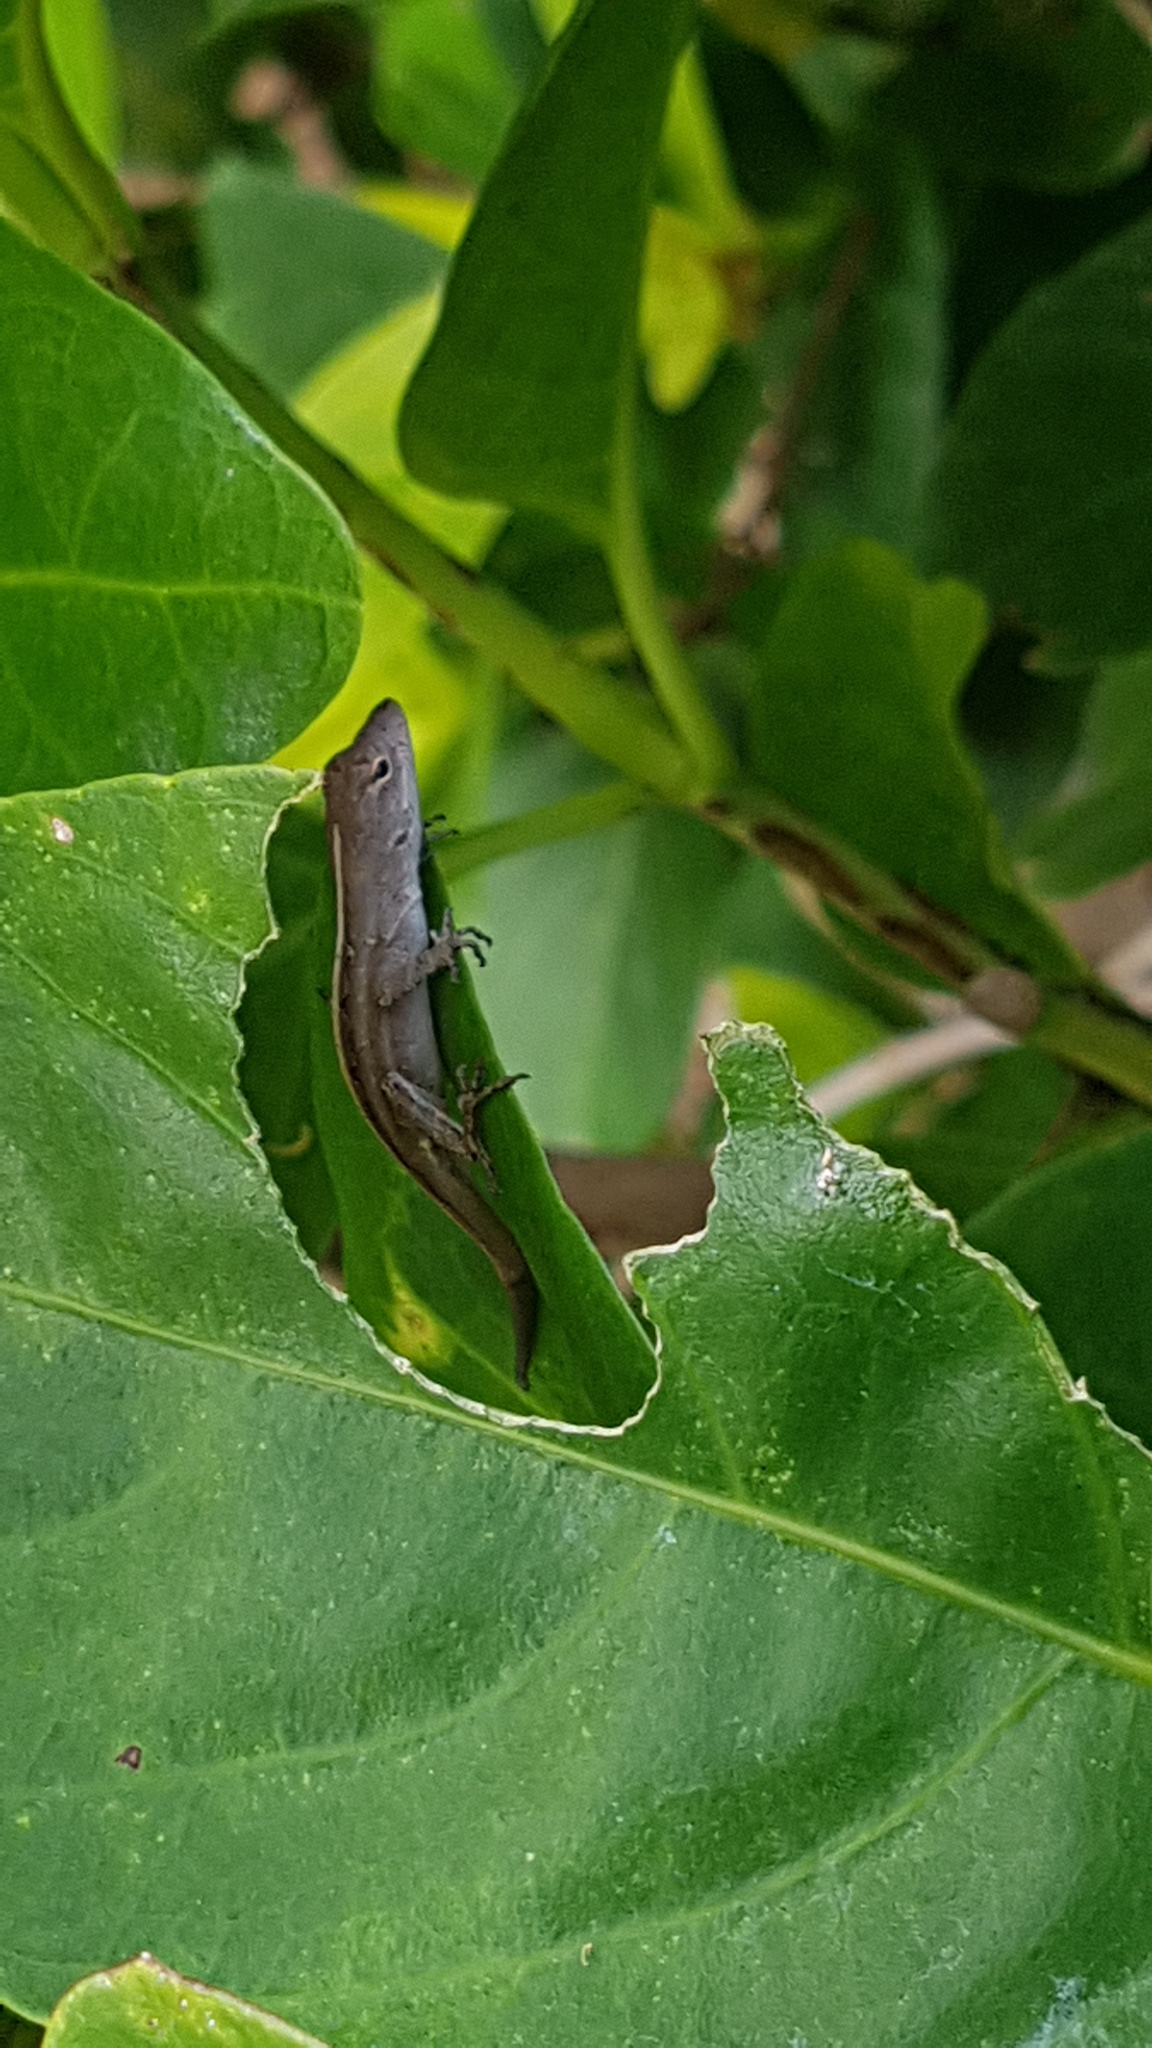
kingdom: Animalia
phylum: Chordata
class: Squamata
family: Dactyloidae
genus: Anolis
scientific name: Anolis sagrei
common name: Brown anole
